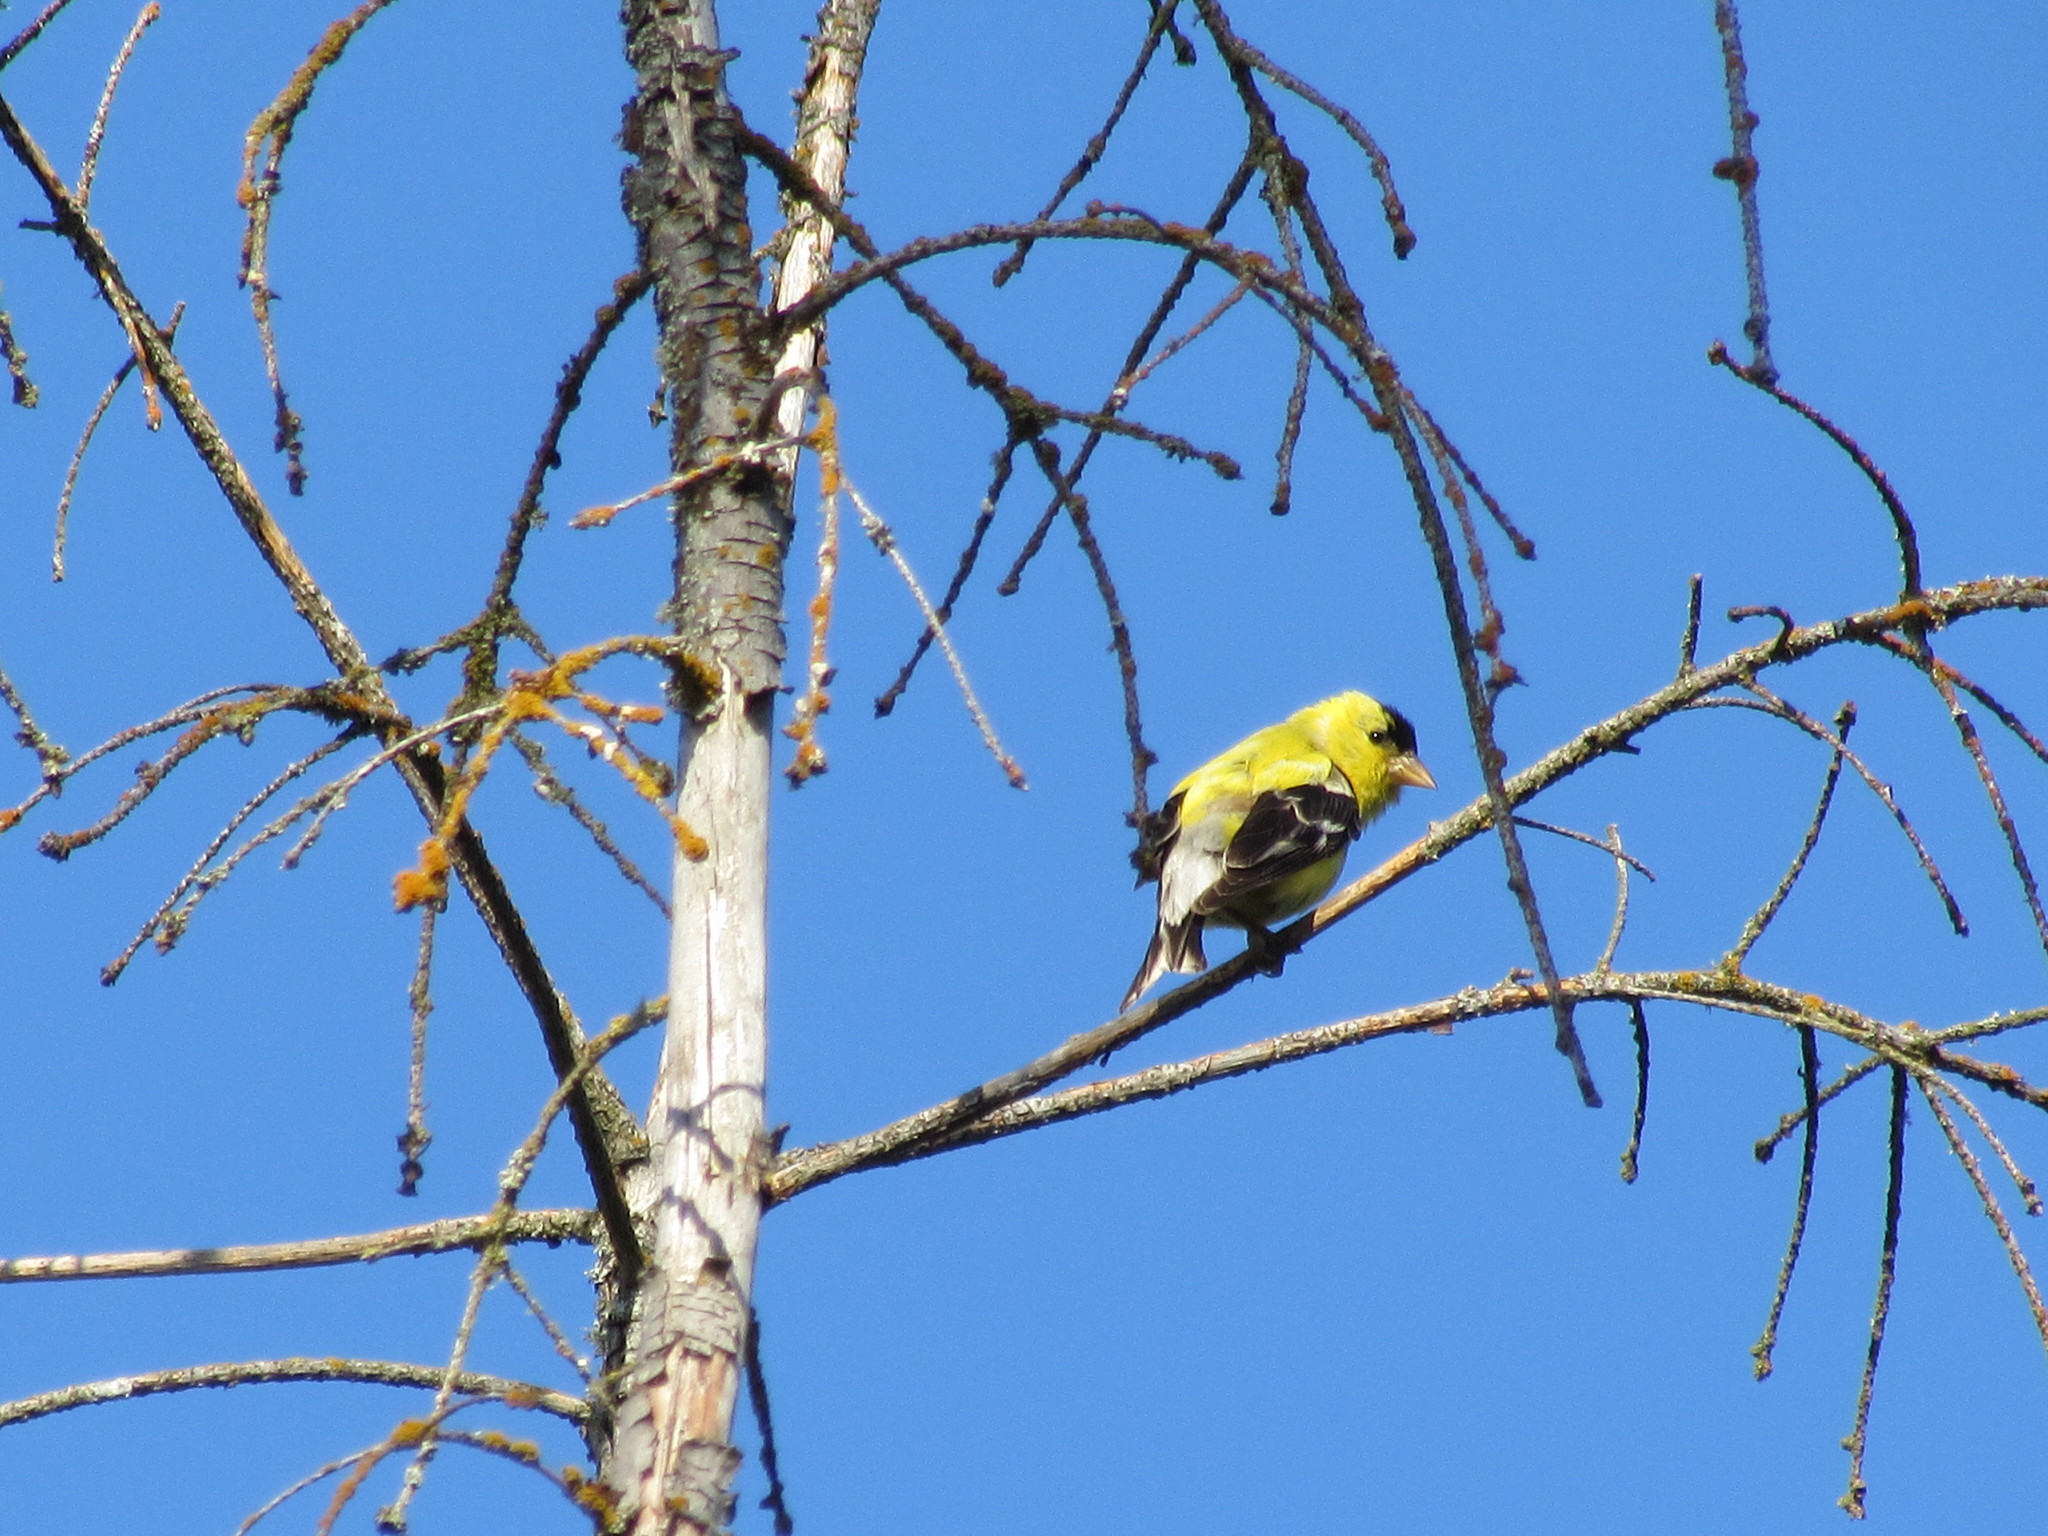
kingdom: Animalia
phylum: Chordata
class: Aves
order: Passeriformes
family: Fringillidae
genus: Spinus
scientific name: Spinus tristis
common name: American goldfinch
